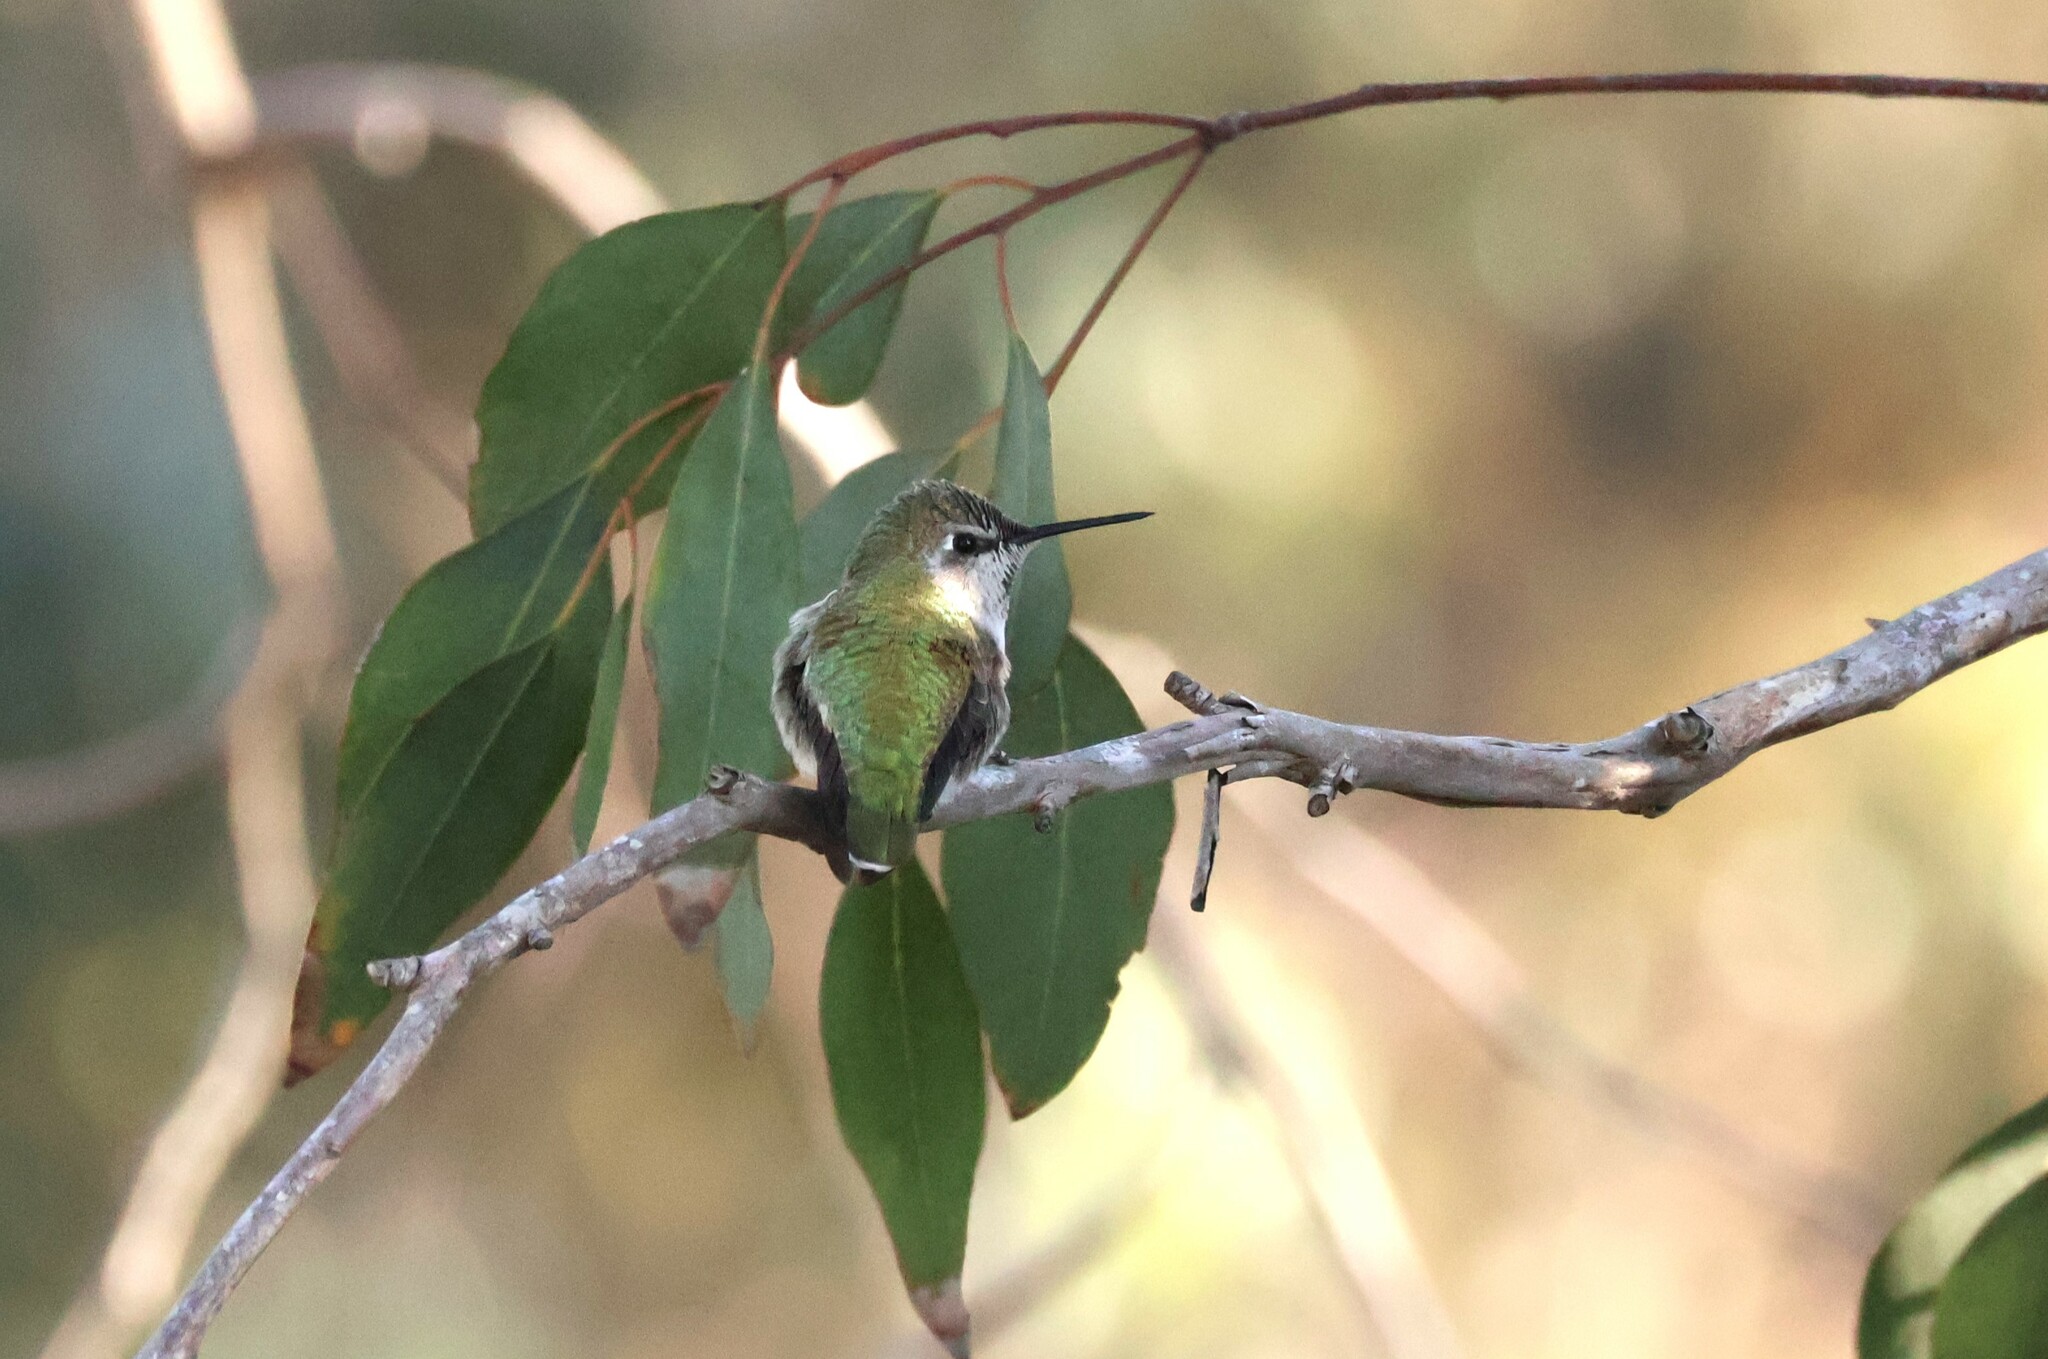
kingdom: Animalia
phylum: Chordata
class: Aves
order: Apodiformes
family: Trochilidae
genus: Calypte
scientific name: Calypte anna
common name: Anna's hummingbird
